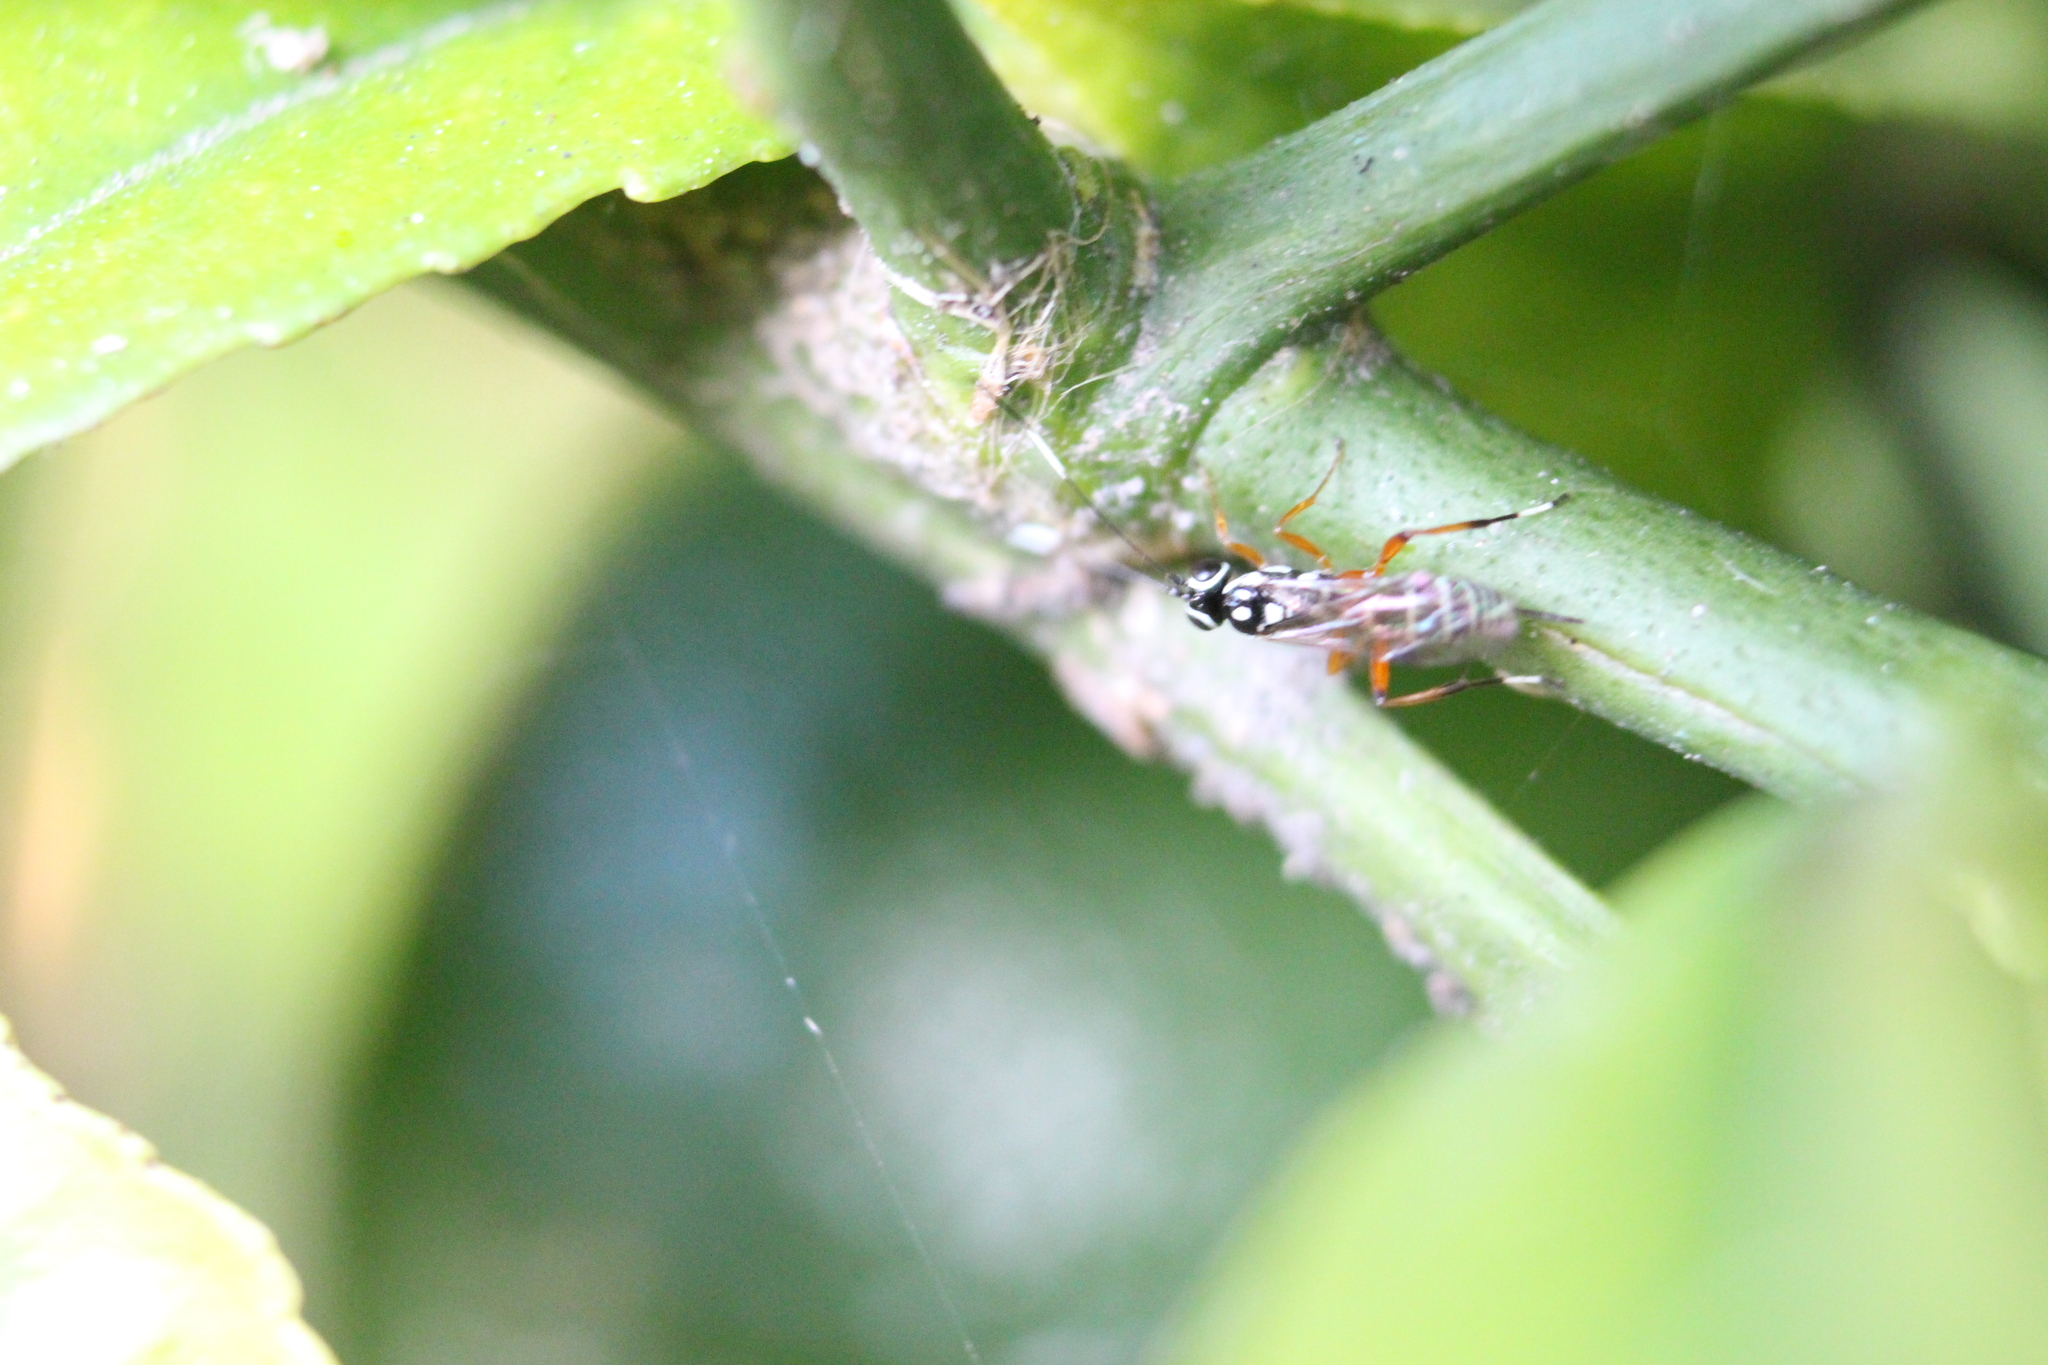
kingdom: Animalia
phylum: Arthropoda
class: Insecta
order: Hymenoptera
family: Ichneumonidae
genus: Glabridorsum
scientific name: Glabridorsum stokesii
